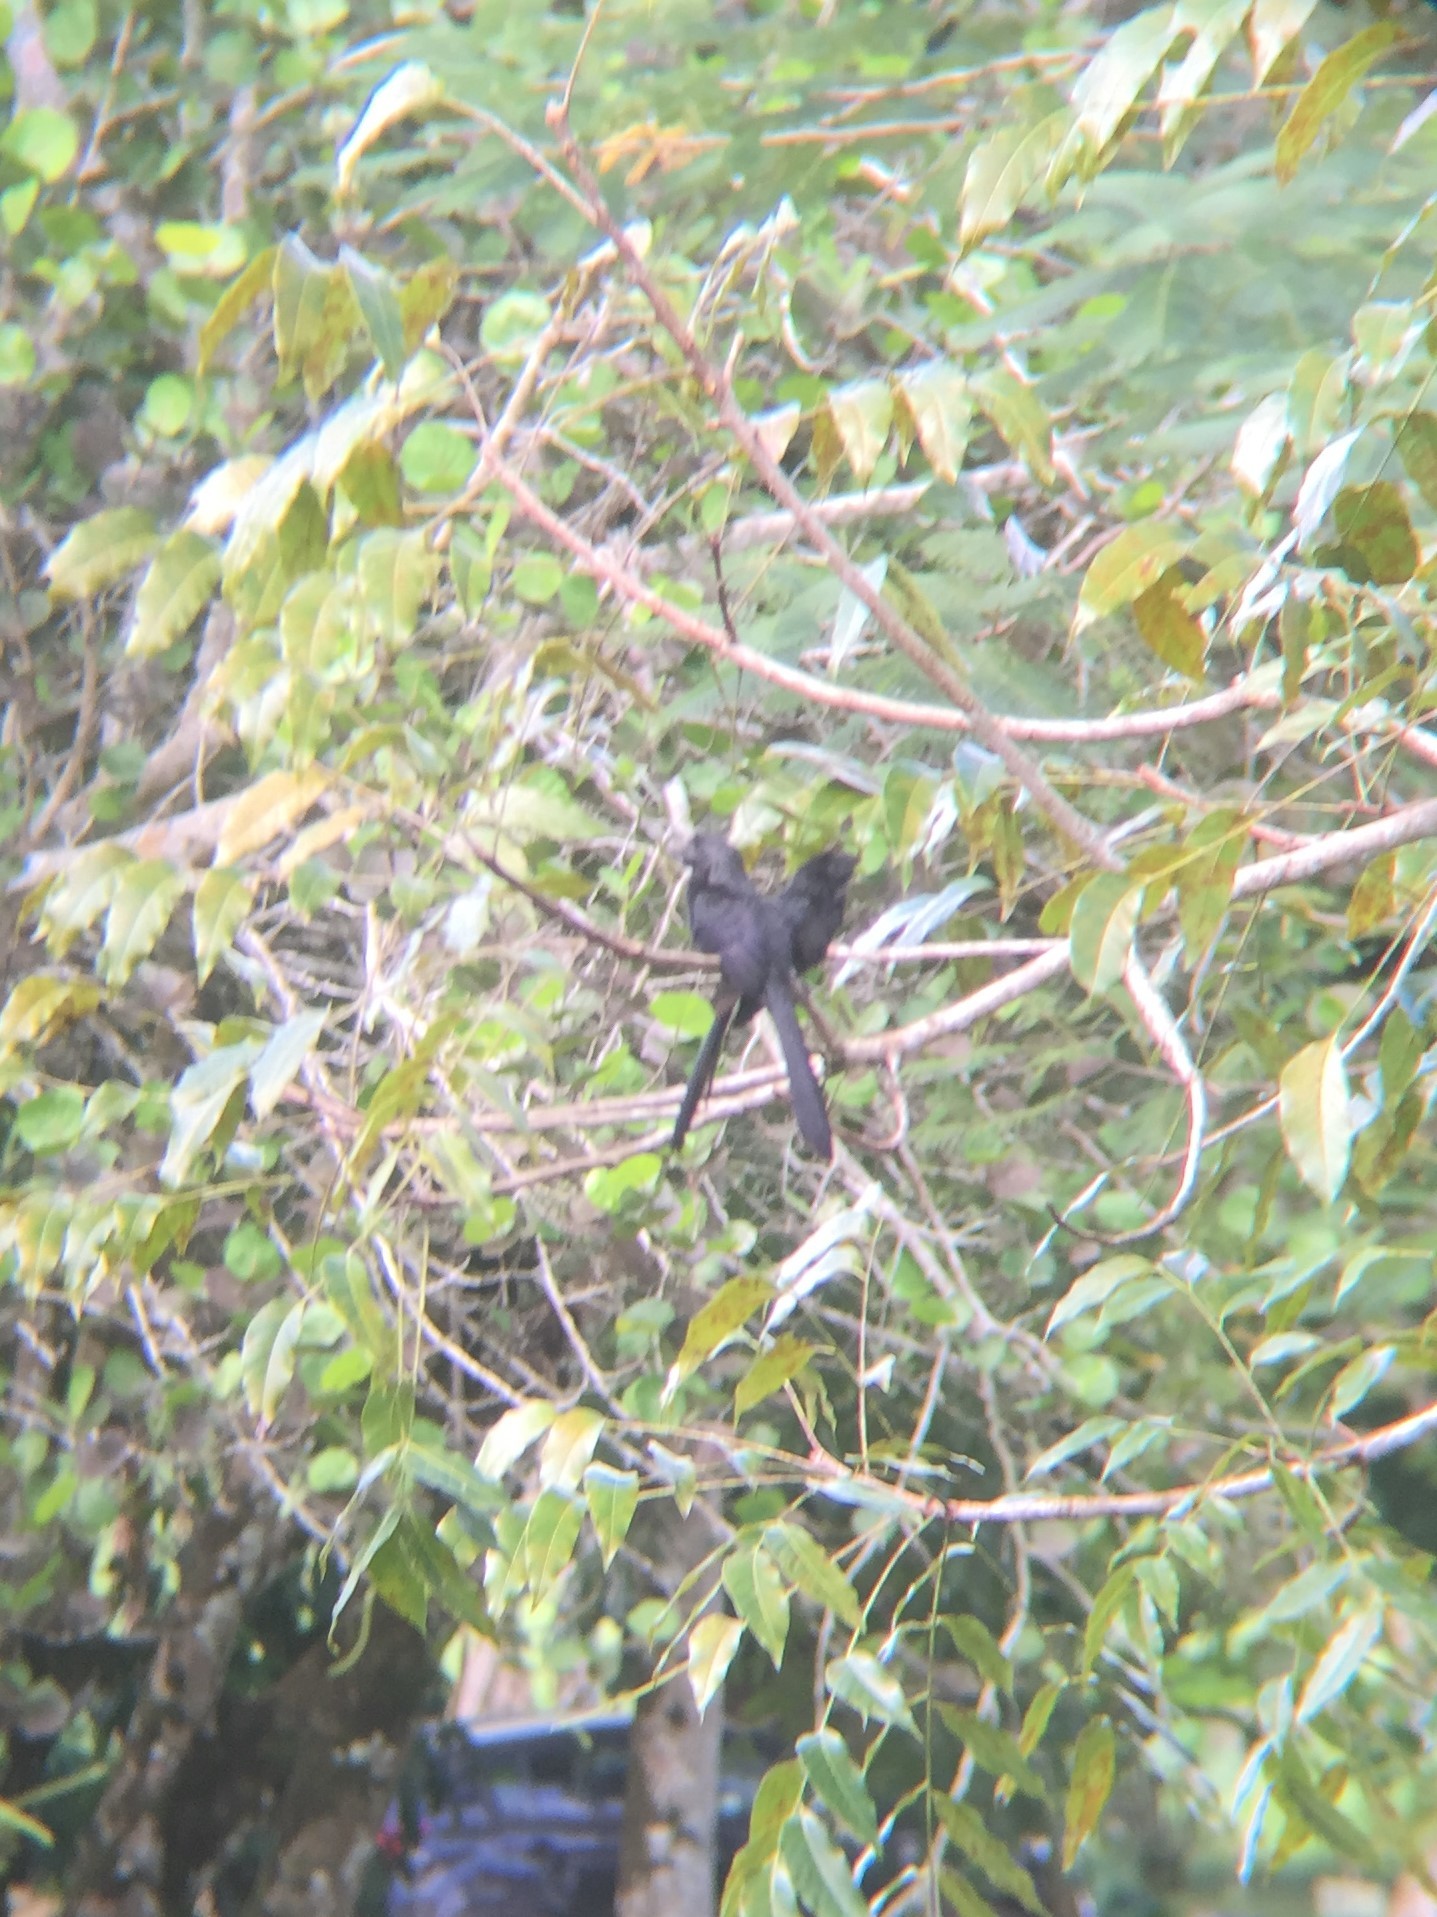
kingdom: Animalia
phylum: Chordata
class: Aves
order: Cuculiformes
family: Cuculidae
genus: Crotophaga
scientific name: Crotophaga sulcirostris
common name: Groove-billed ani
